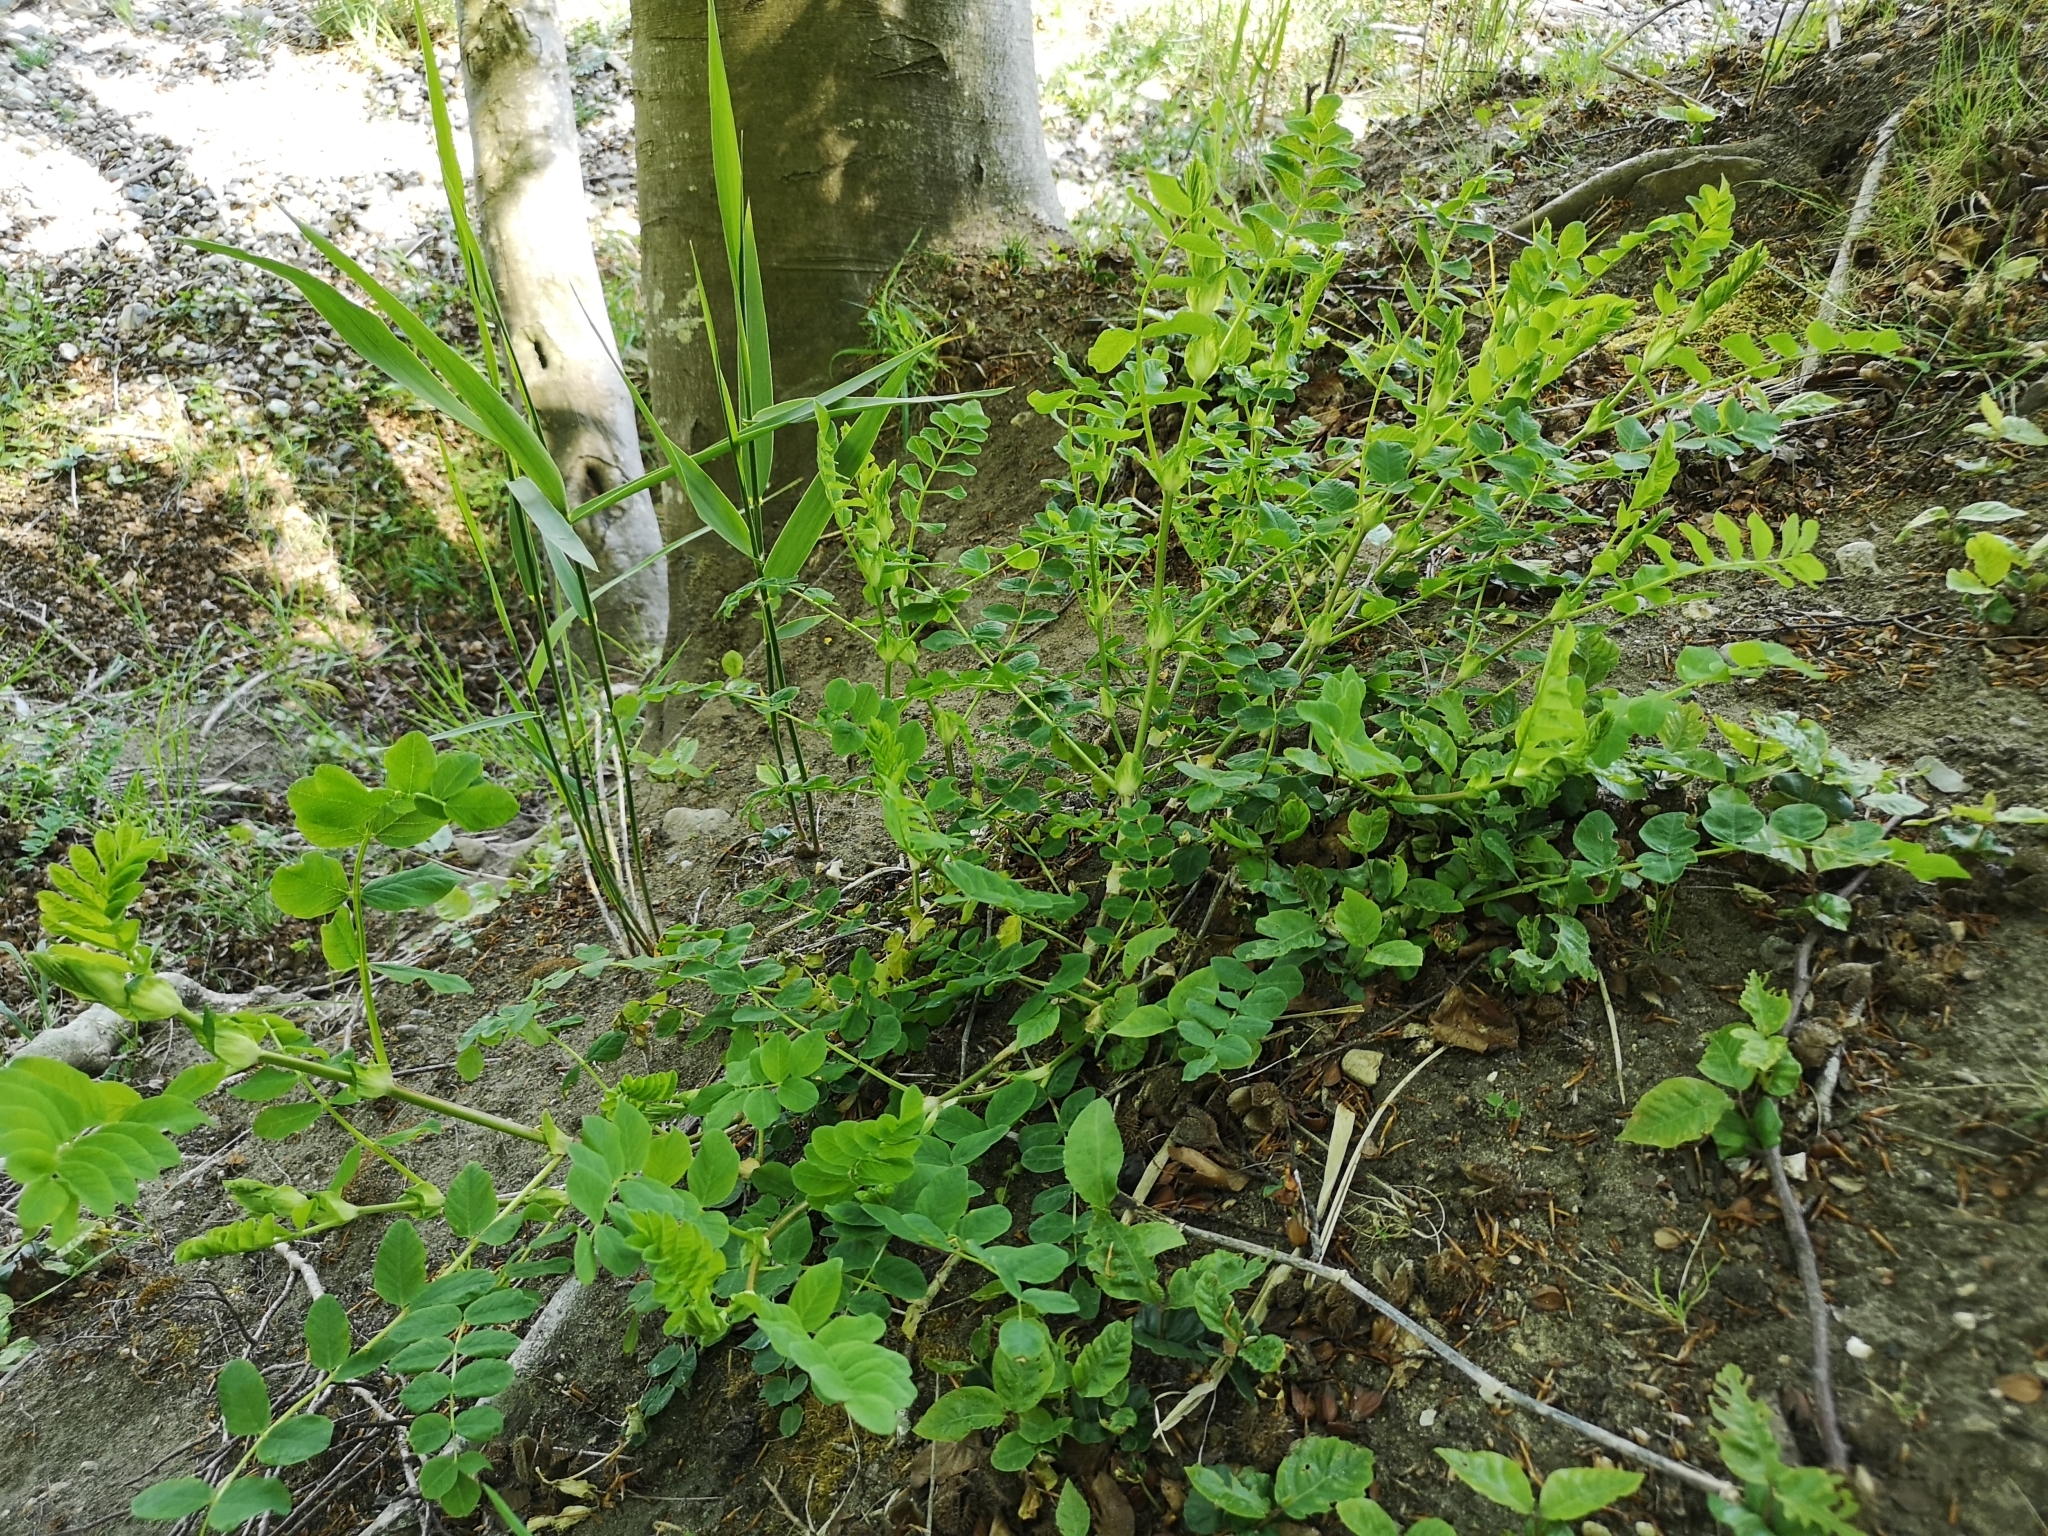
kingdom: Plantae
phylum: Tracheophyta
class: Magnoliopsida
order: Fabales
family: Fabaceae
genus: Astragalus
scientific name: Astragalus glycyphyllos
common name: Wild liquorice
